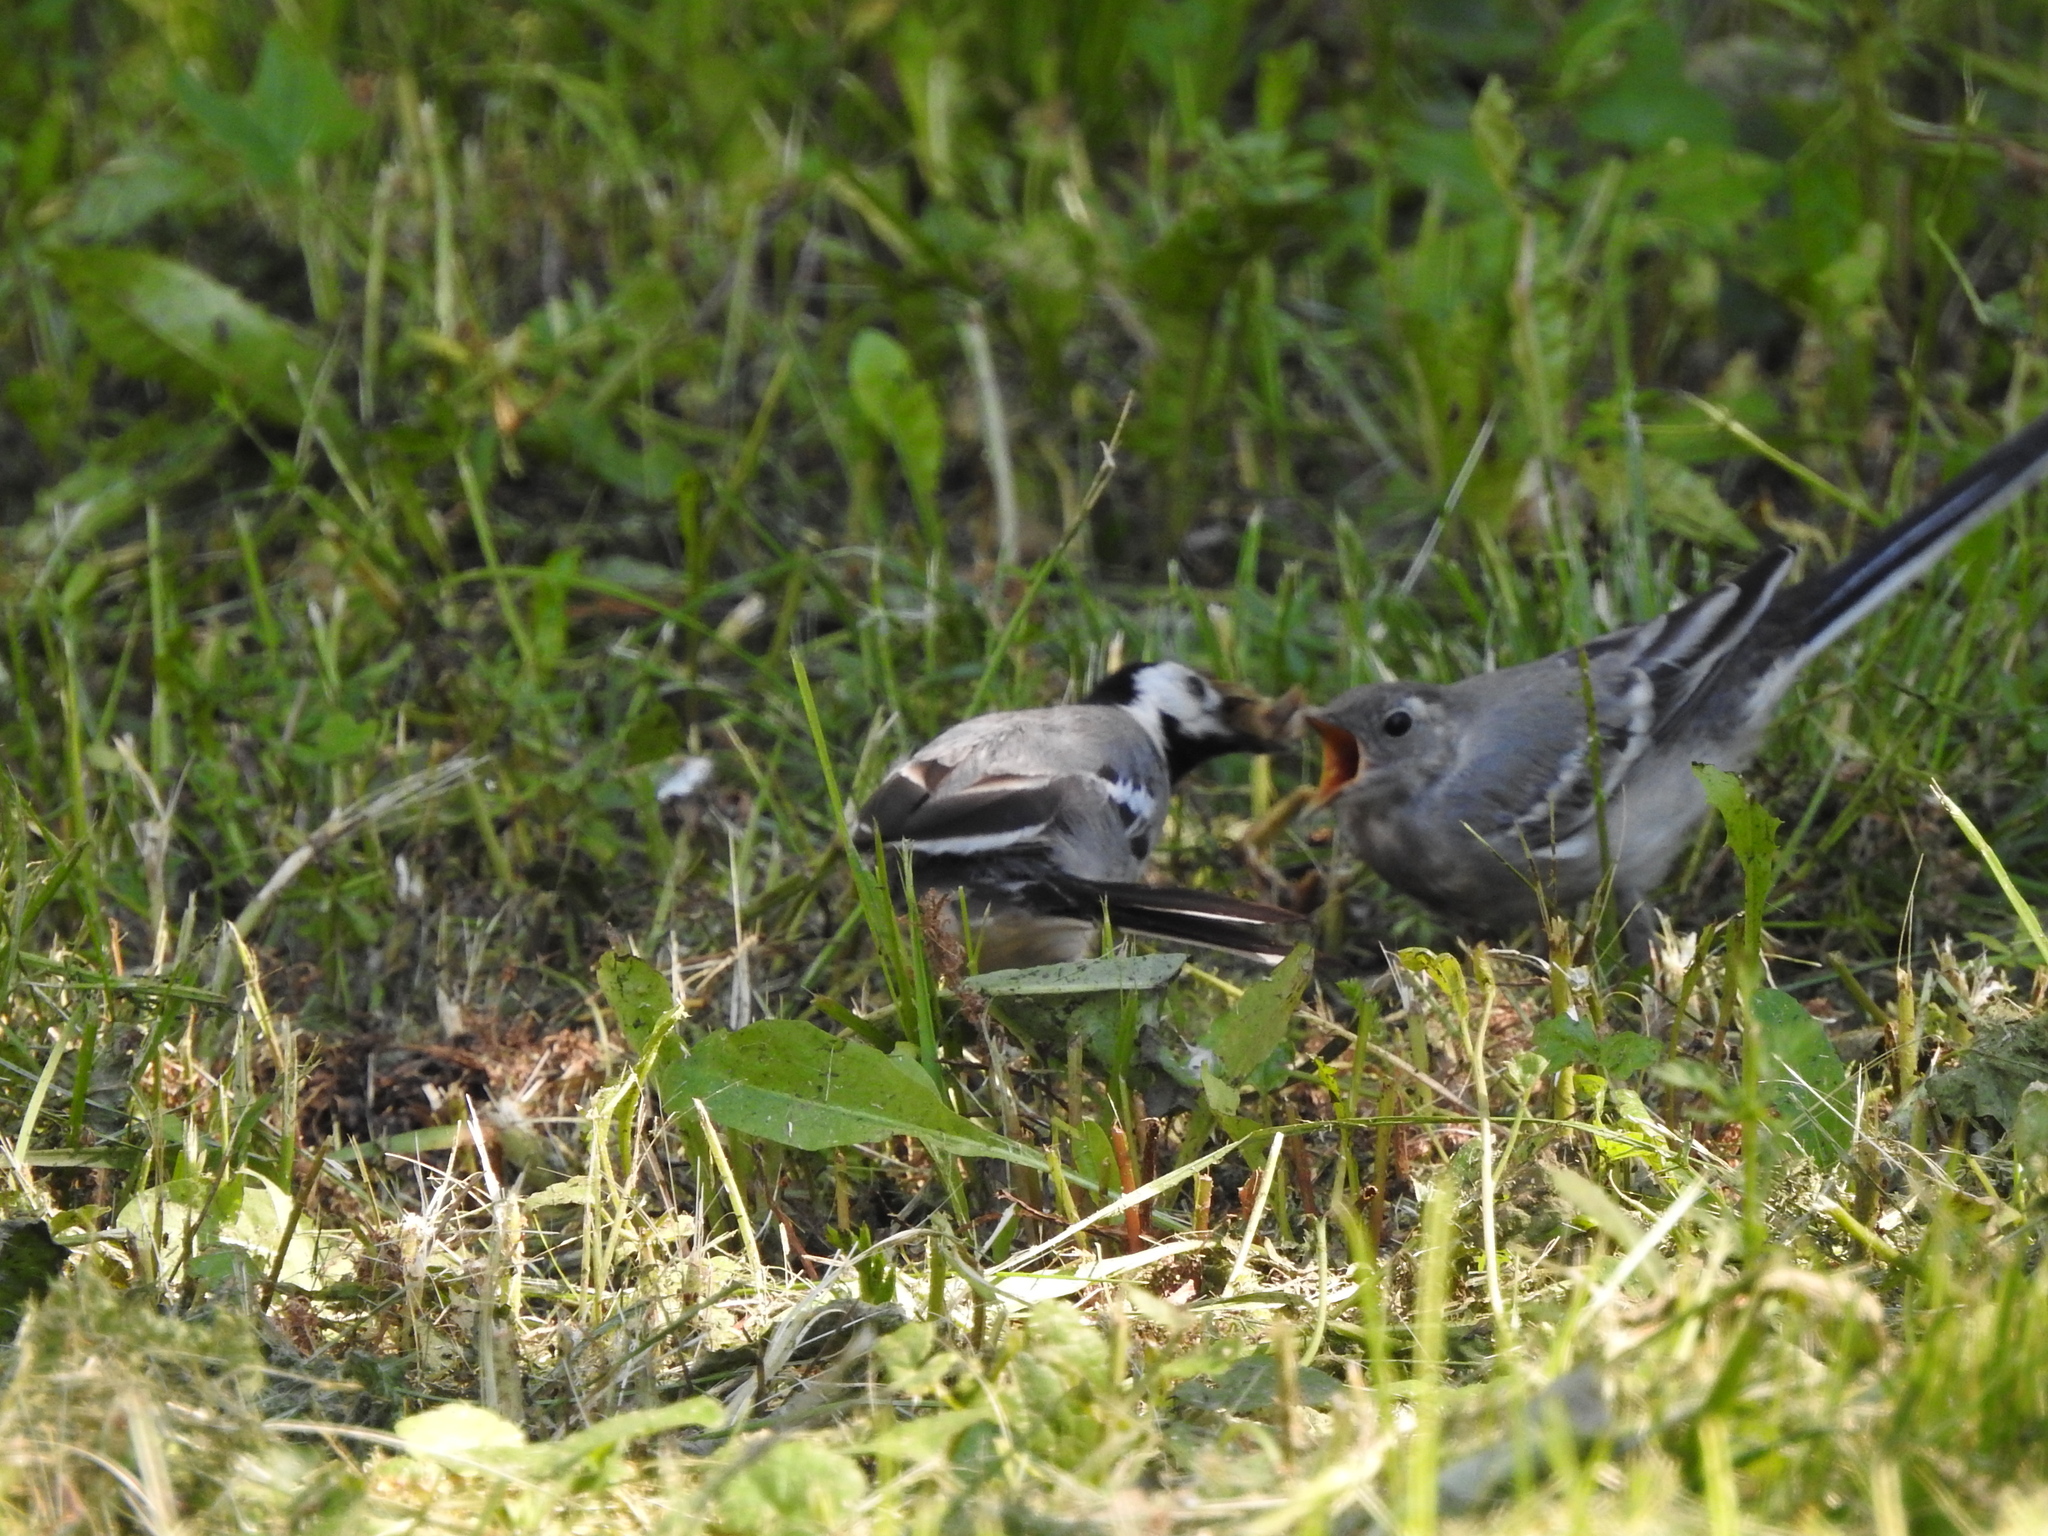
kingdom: Animalia
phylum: Chordata
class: Aves
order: Passeriformes
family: Motacillidae
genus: Motacilla
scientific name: Motacilla alba
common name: White wagtail
